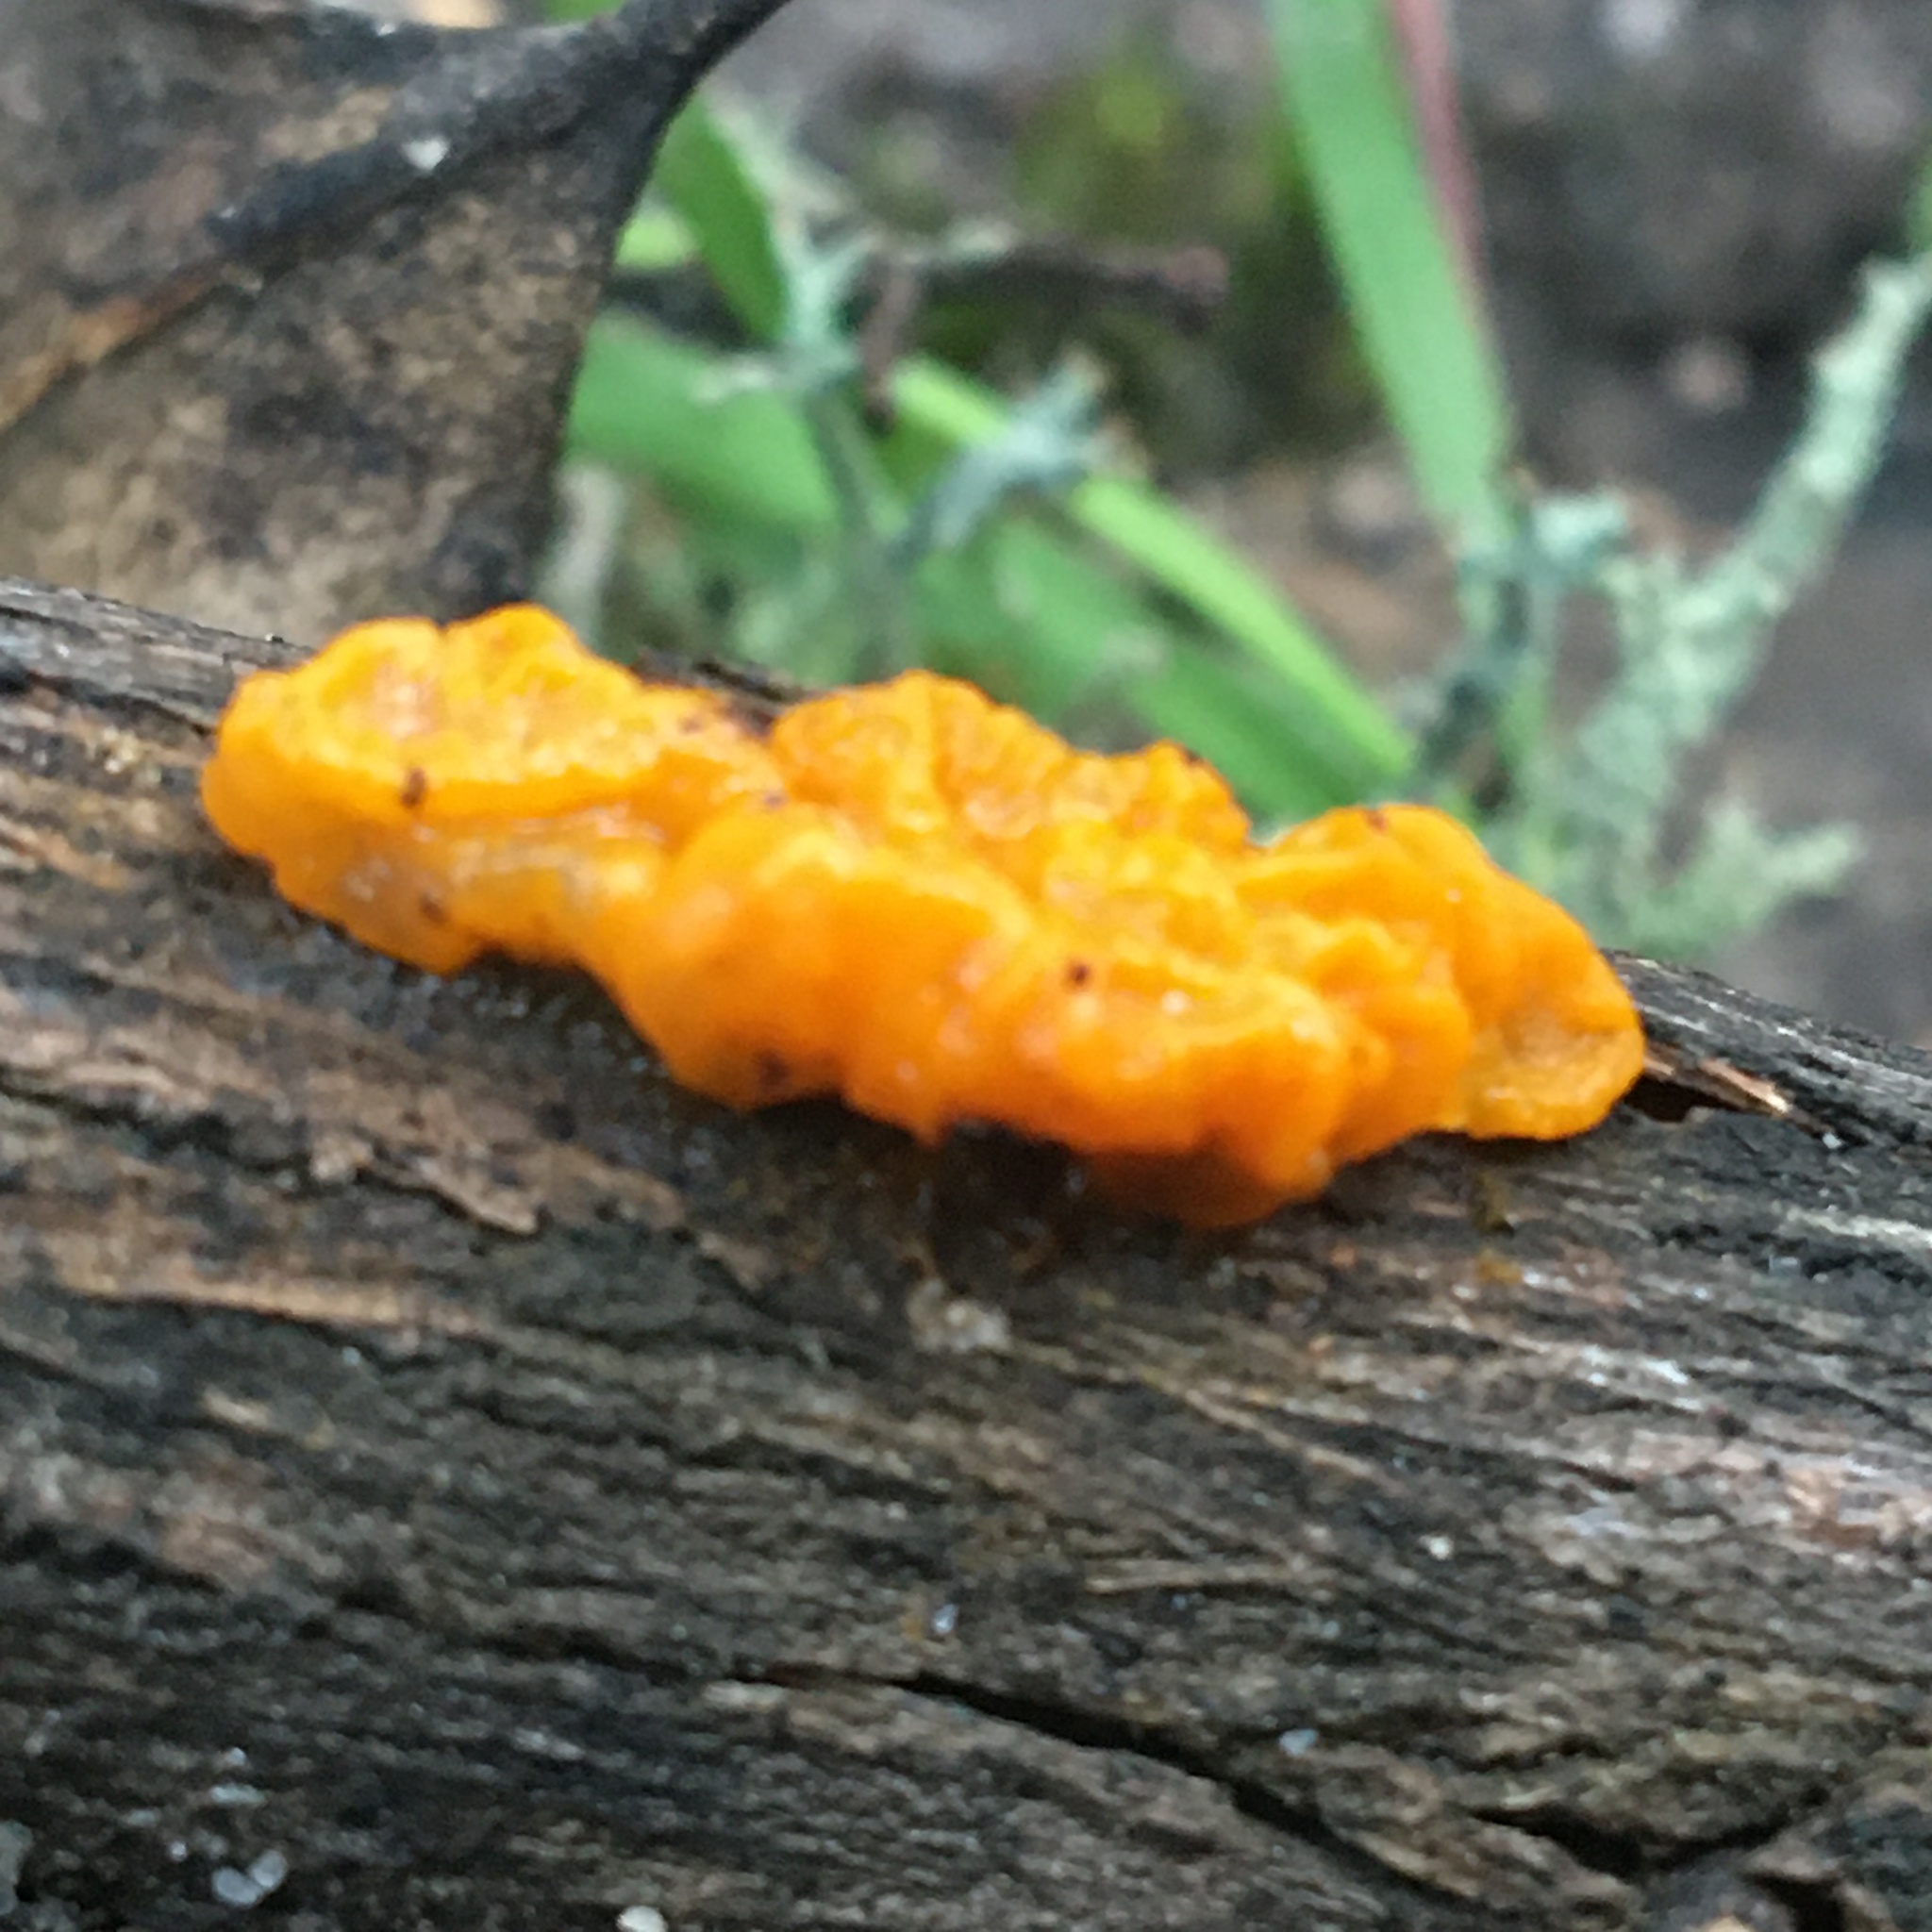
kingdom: Fungi
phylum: Basidiomycota
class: Tremellomycetes
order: Tremellales
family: Tremellaceae
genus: Tremella
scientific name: Tremella mesenterica
